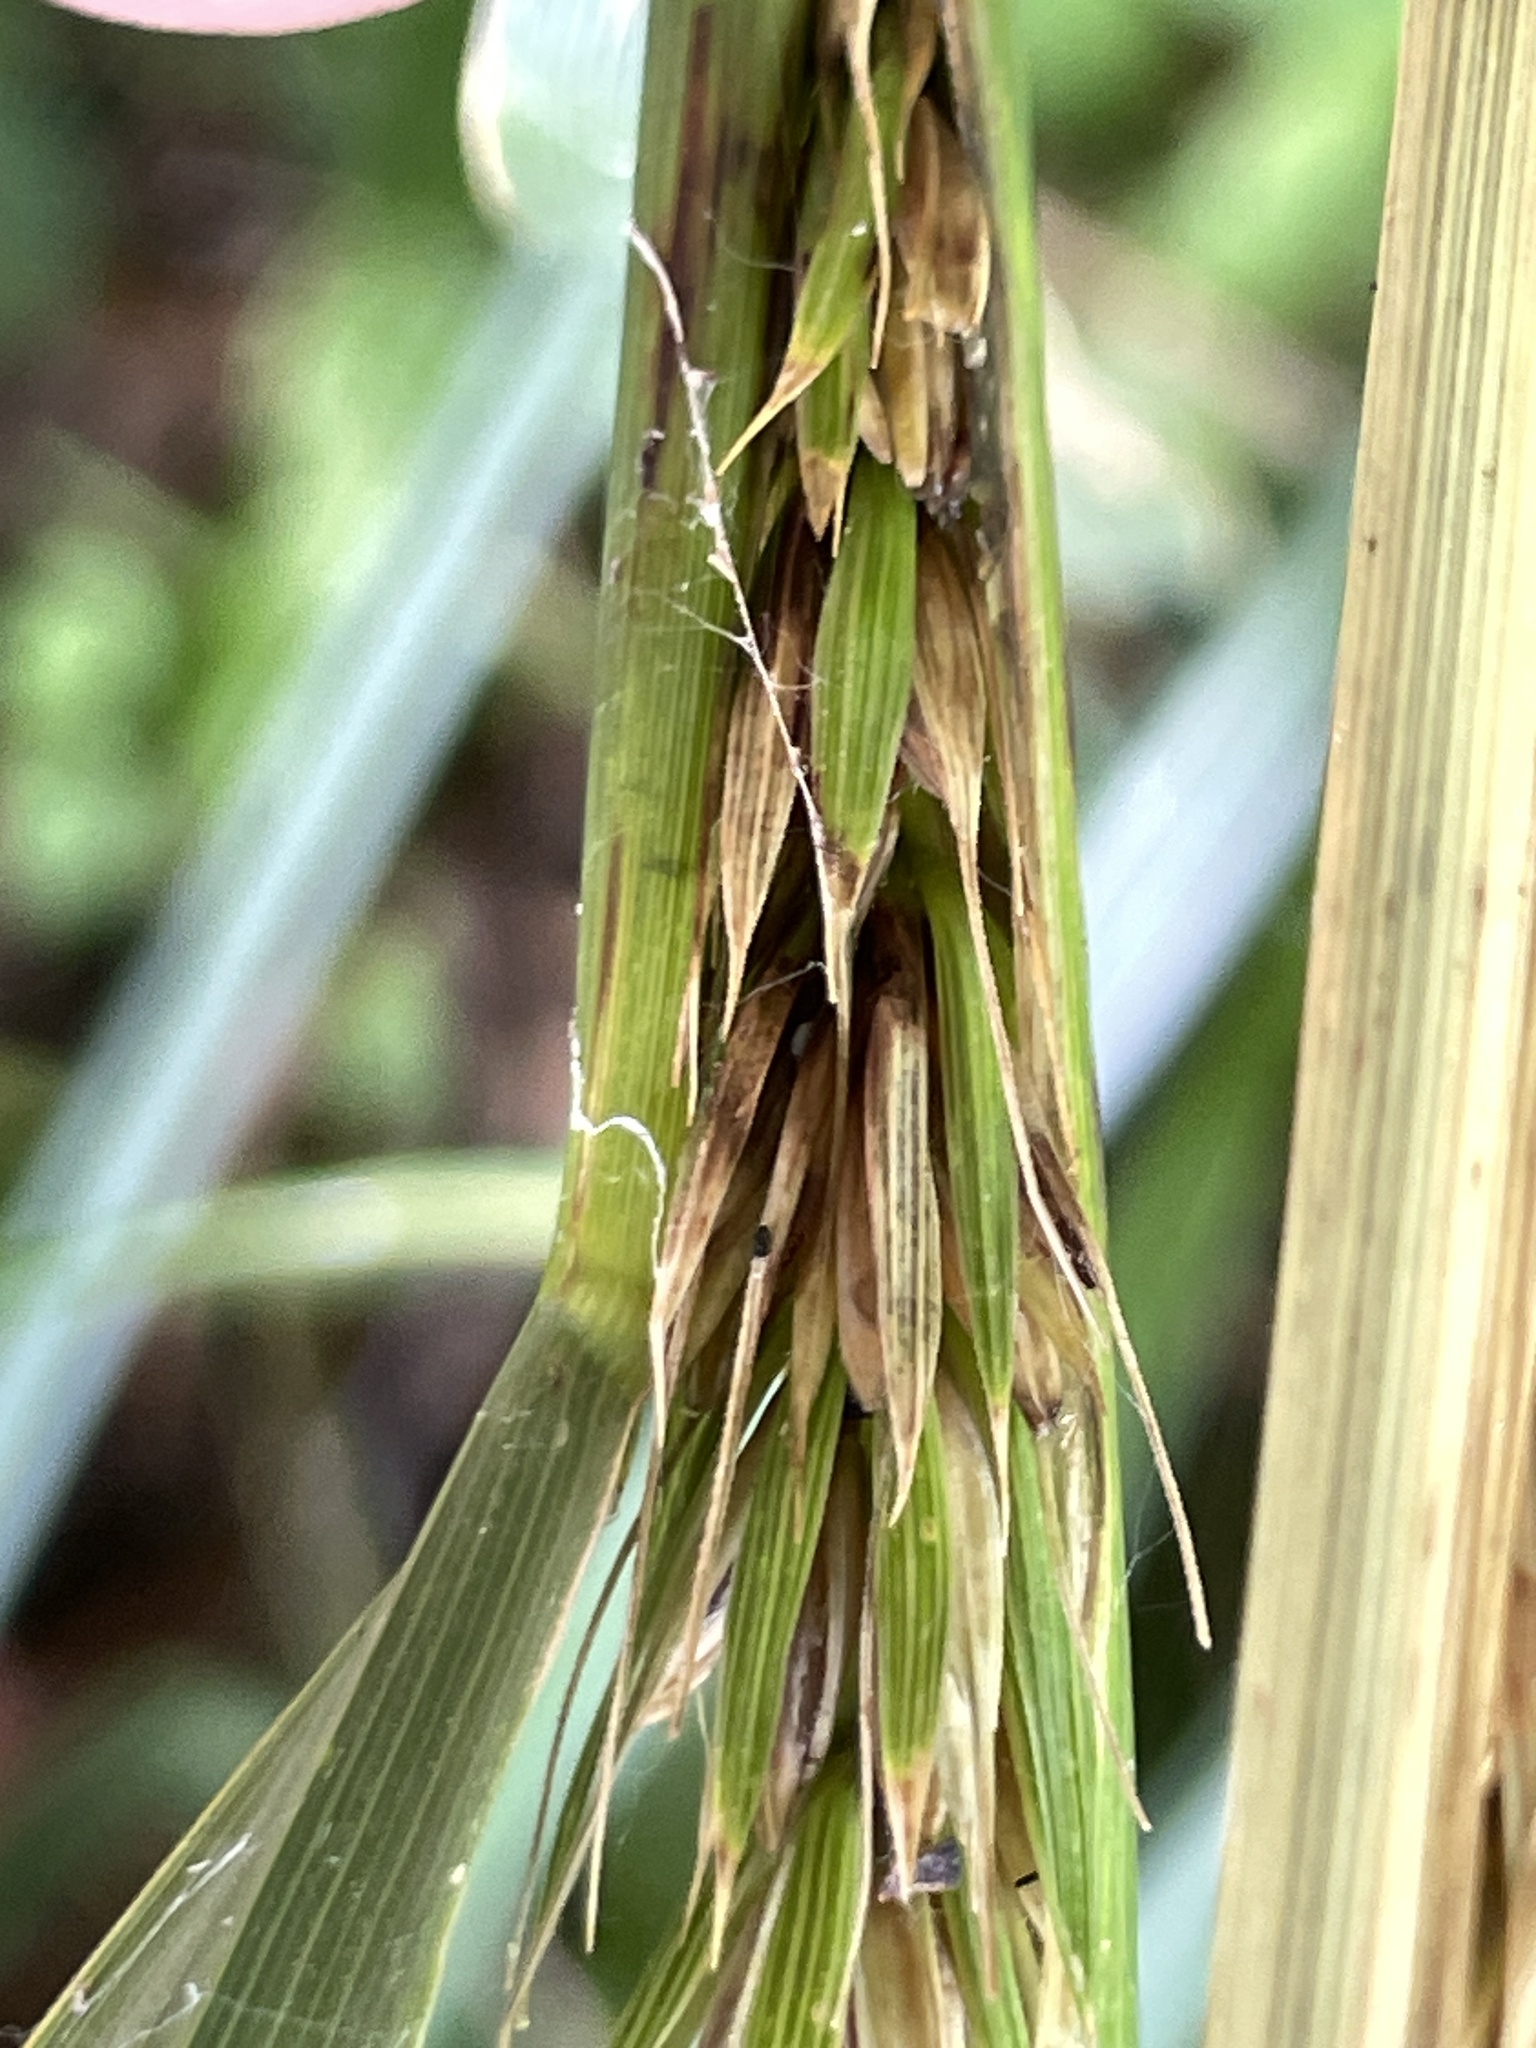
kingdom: Plantae
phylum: Tracheophyta
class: Liliopsida
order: Poales
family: Poaceae
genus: Elymus
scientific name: Elymus virginicus
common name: Common eastern wildrye
